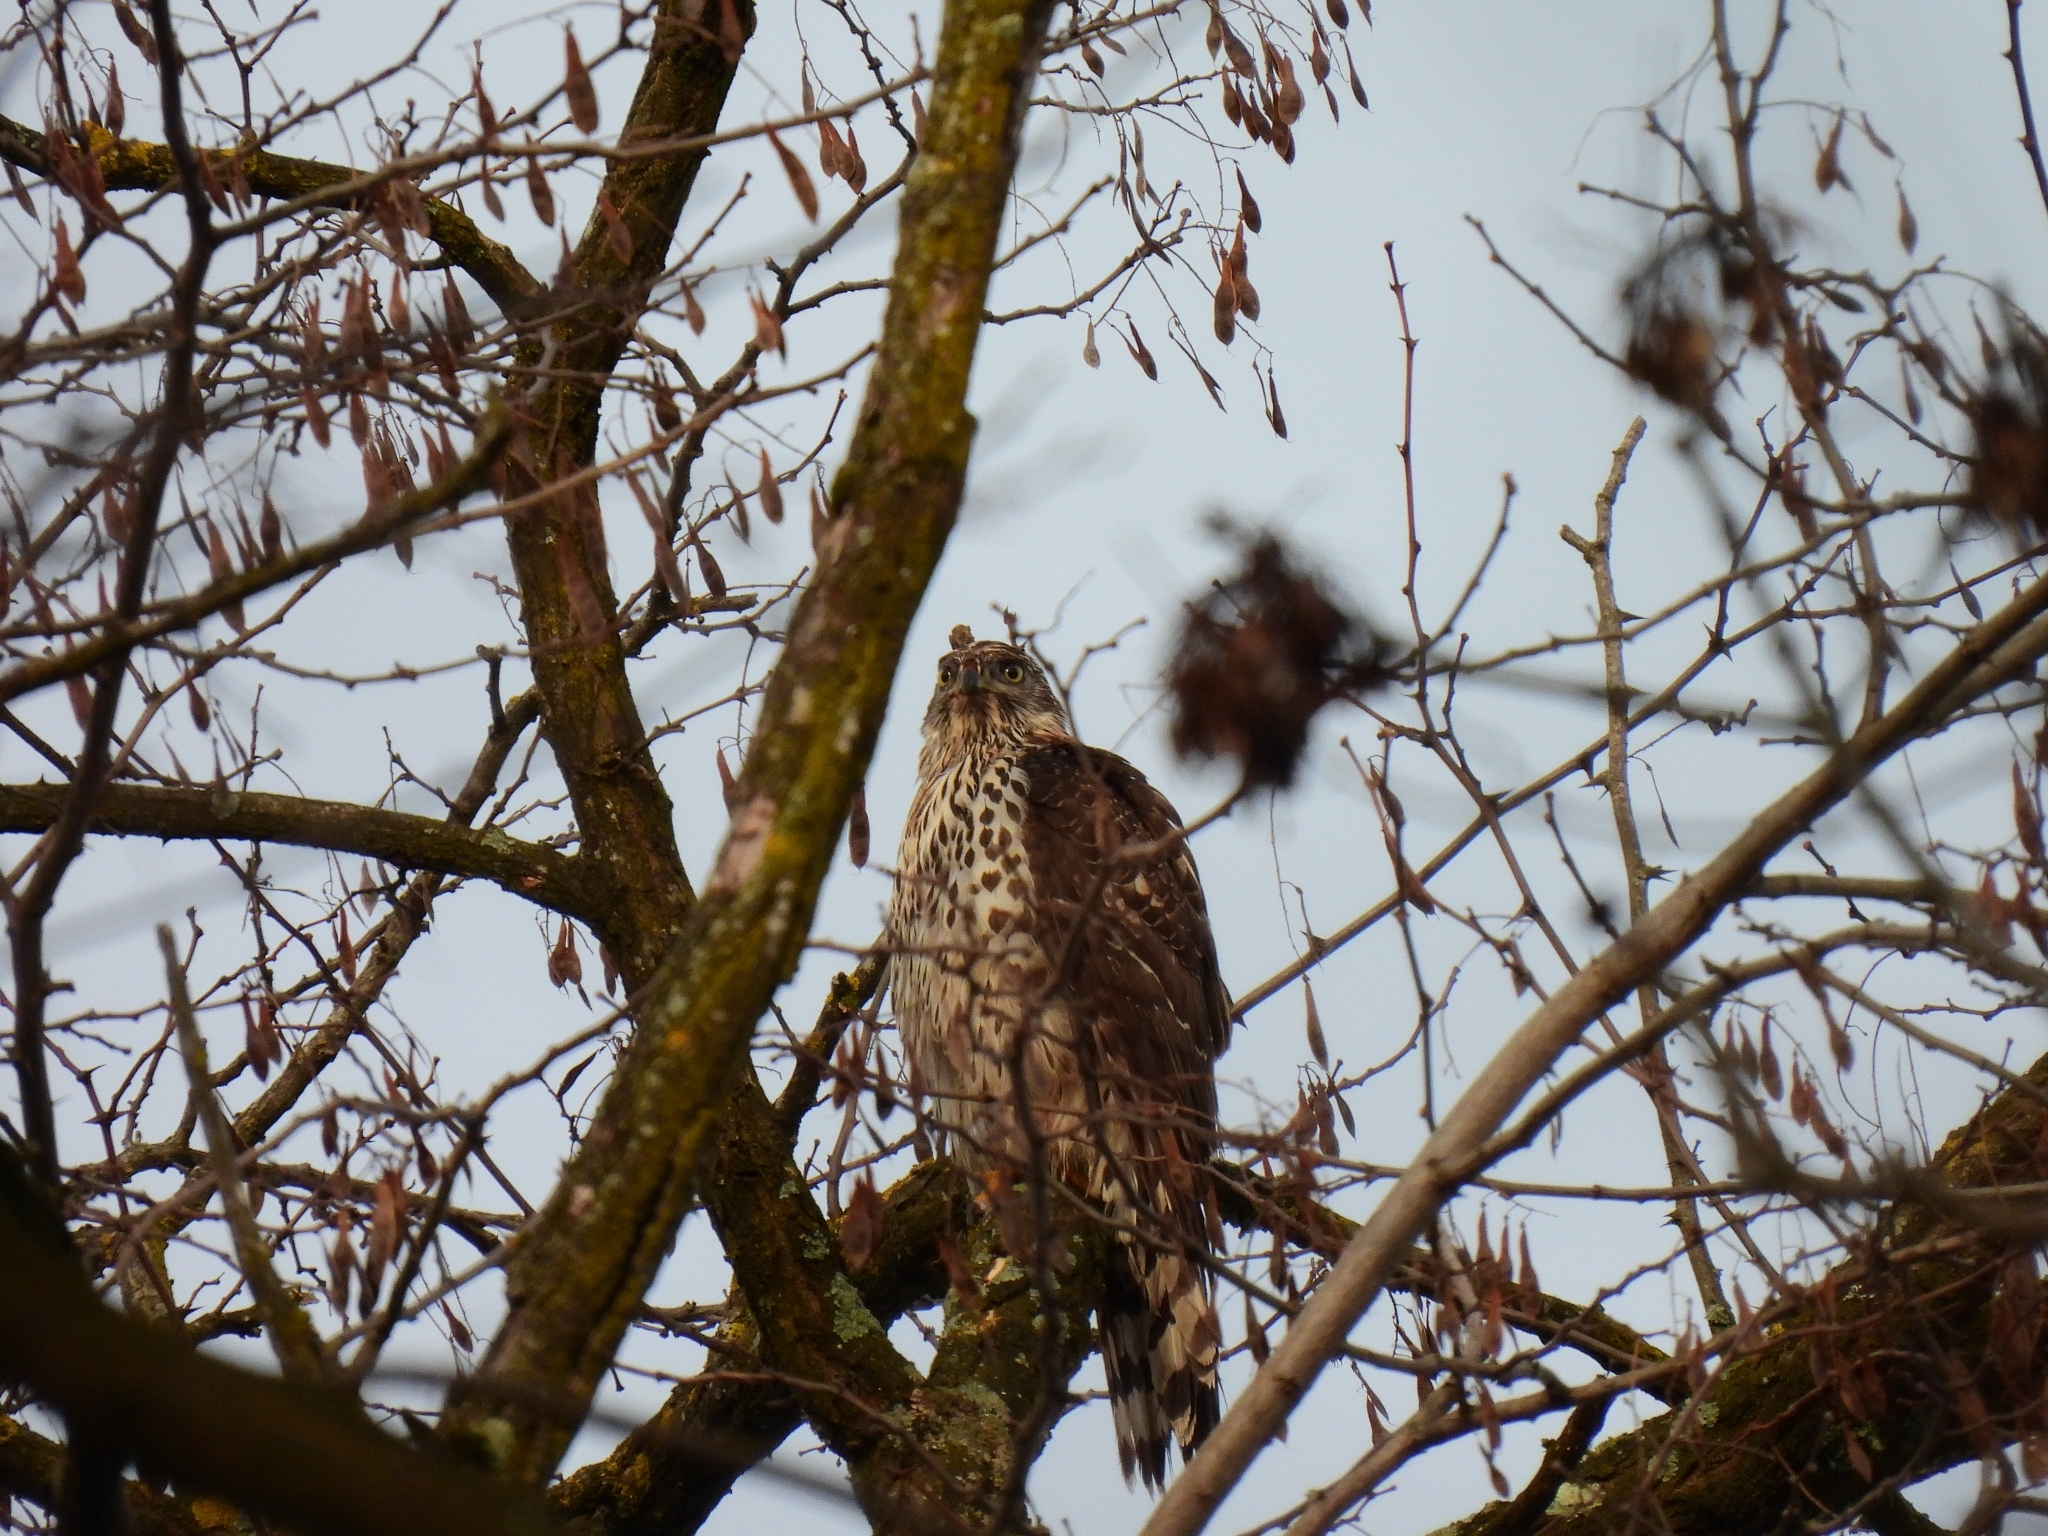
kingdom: Animalia
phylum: Chordata
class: Aves
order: Accipitriformes
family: Accipitridae
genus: Accipiter
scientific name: Accipiter gentilis
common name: Northern goshawk
